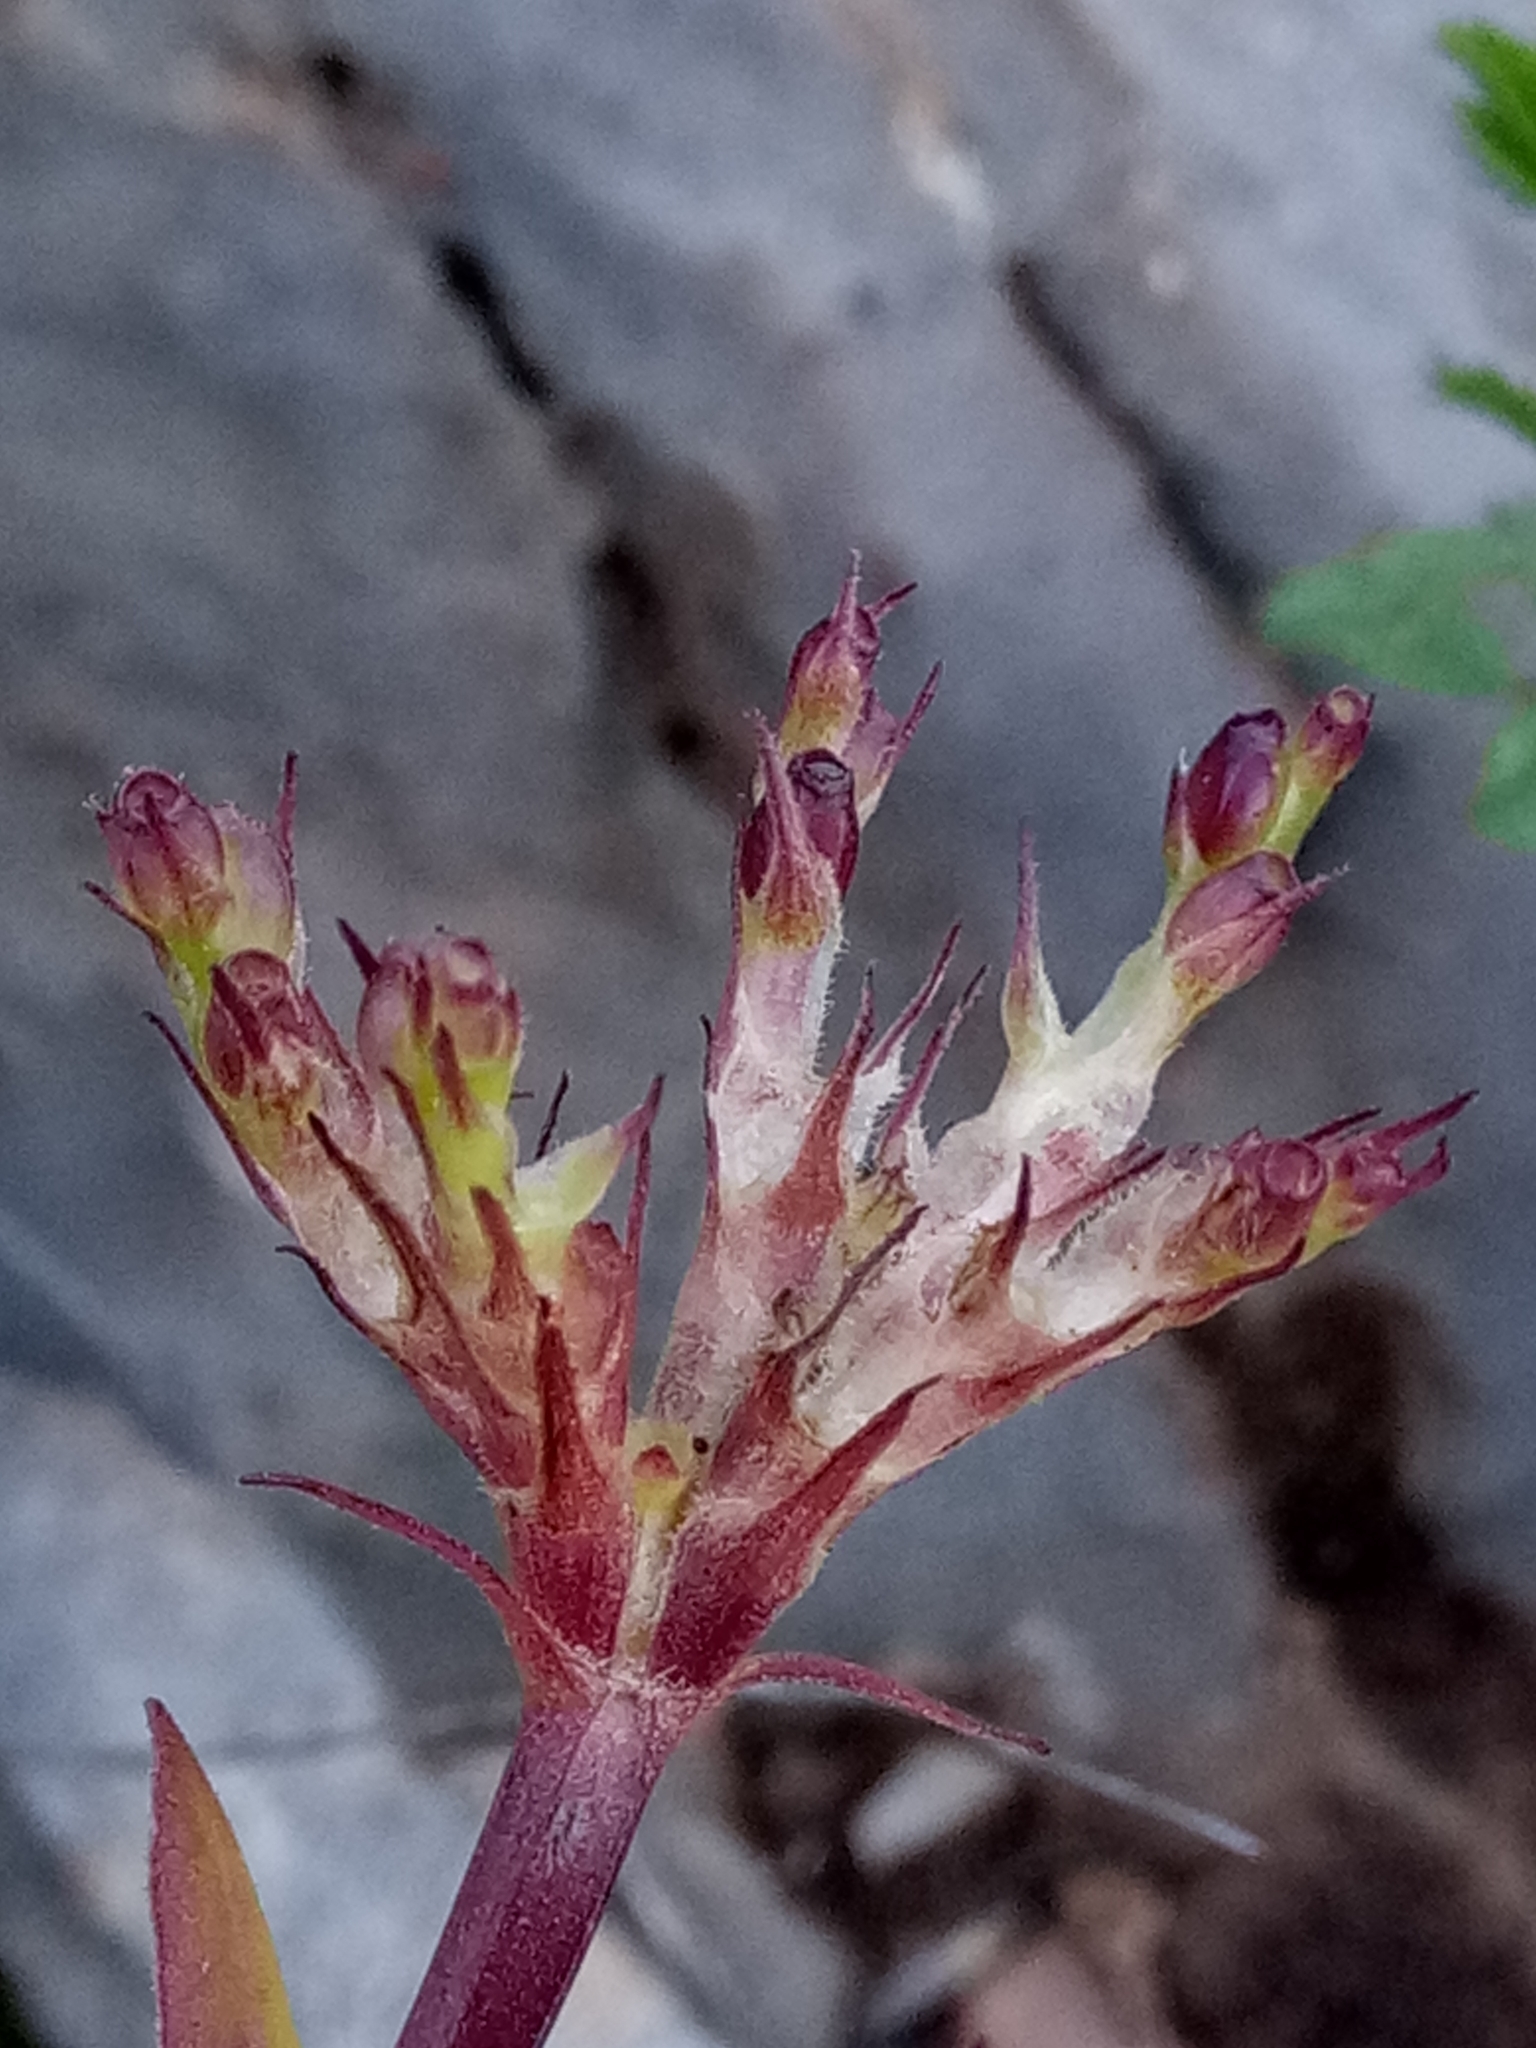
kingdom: Plantae
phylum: Tracheophyta
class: Magnoliopsida
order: Dipsacales
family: Caprifoliaceae
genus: Fedia
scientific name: Fedia graciliflora
